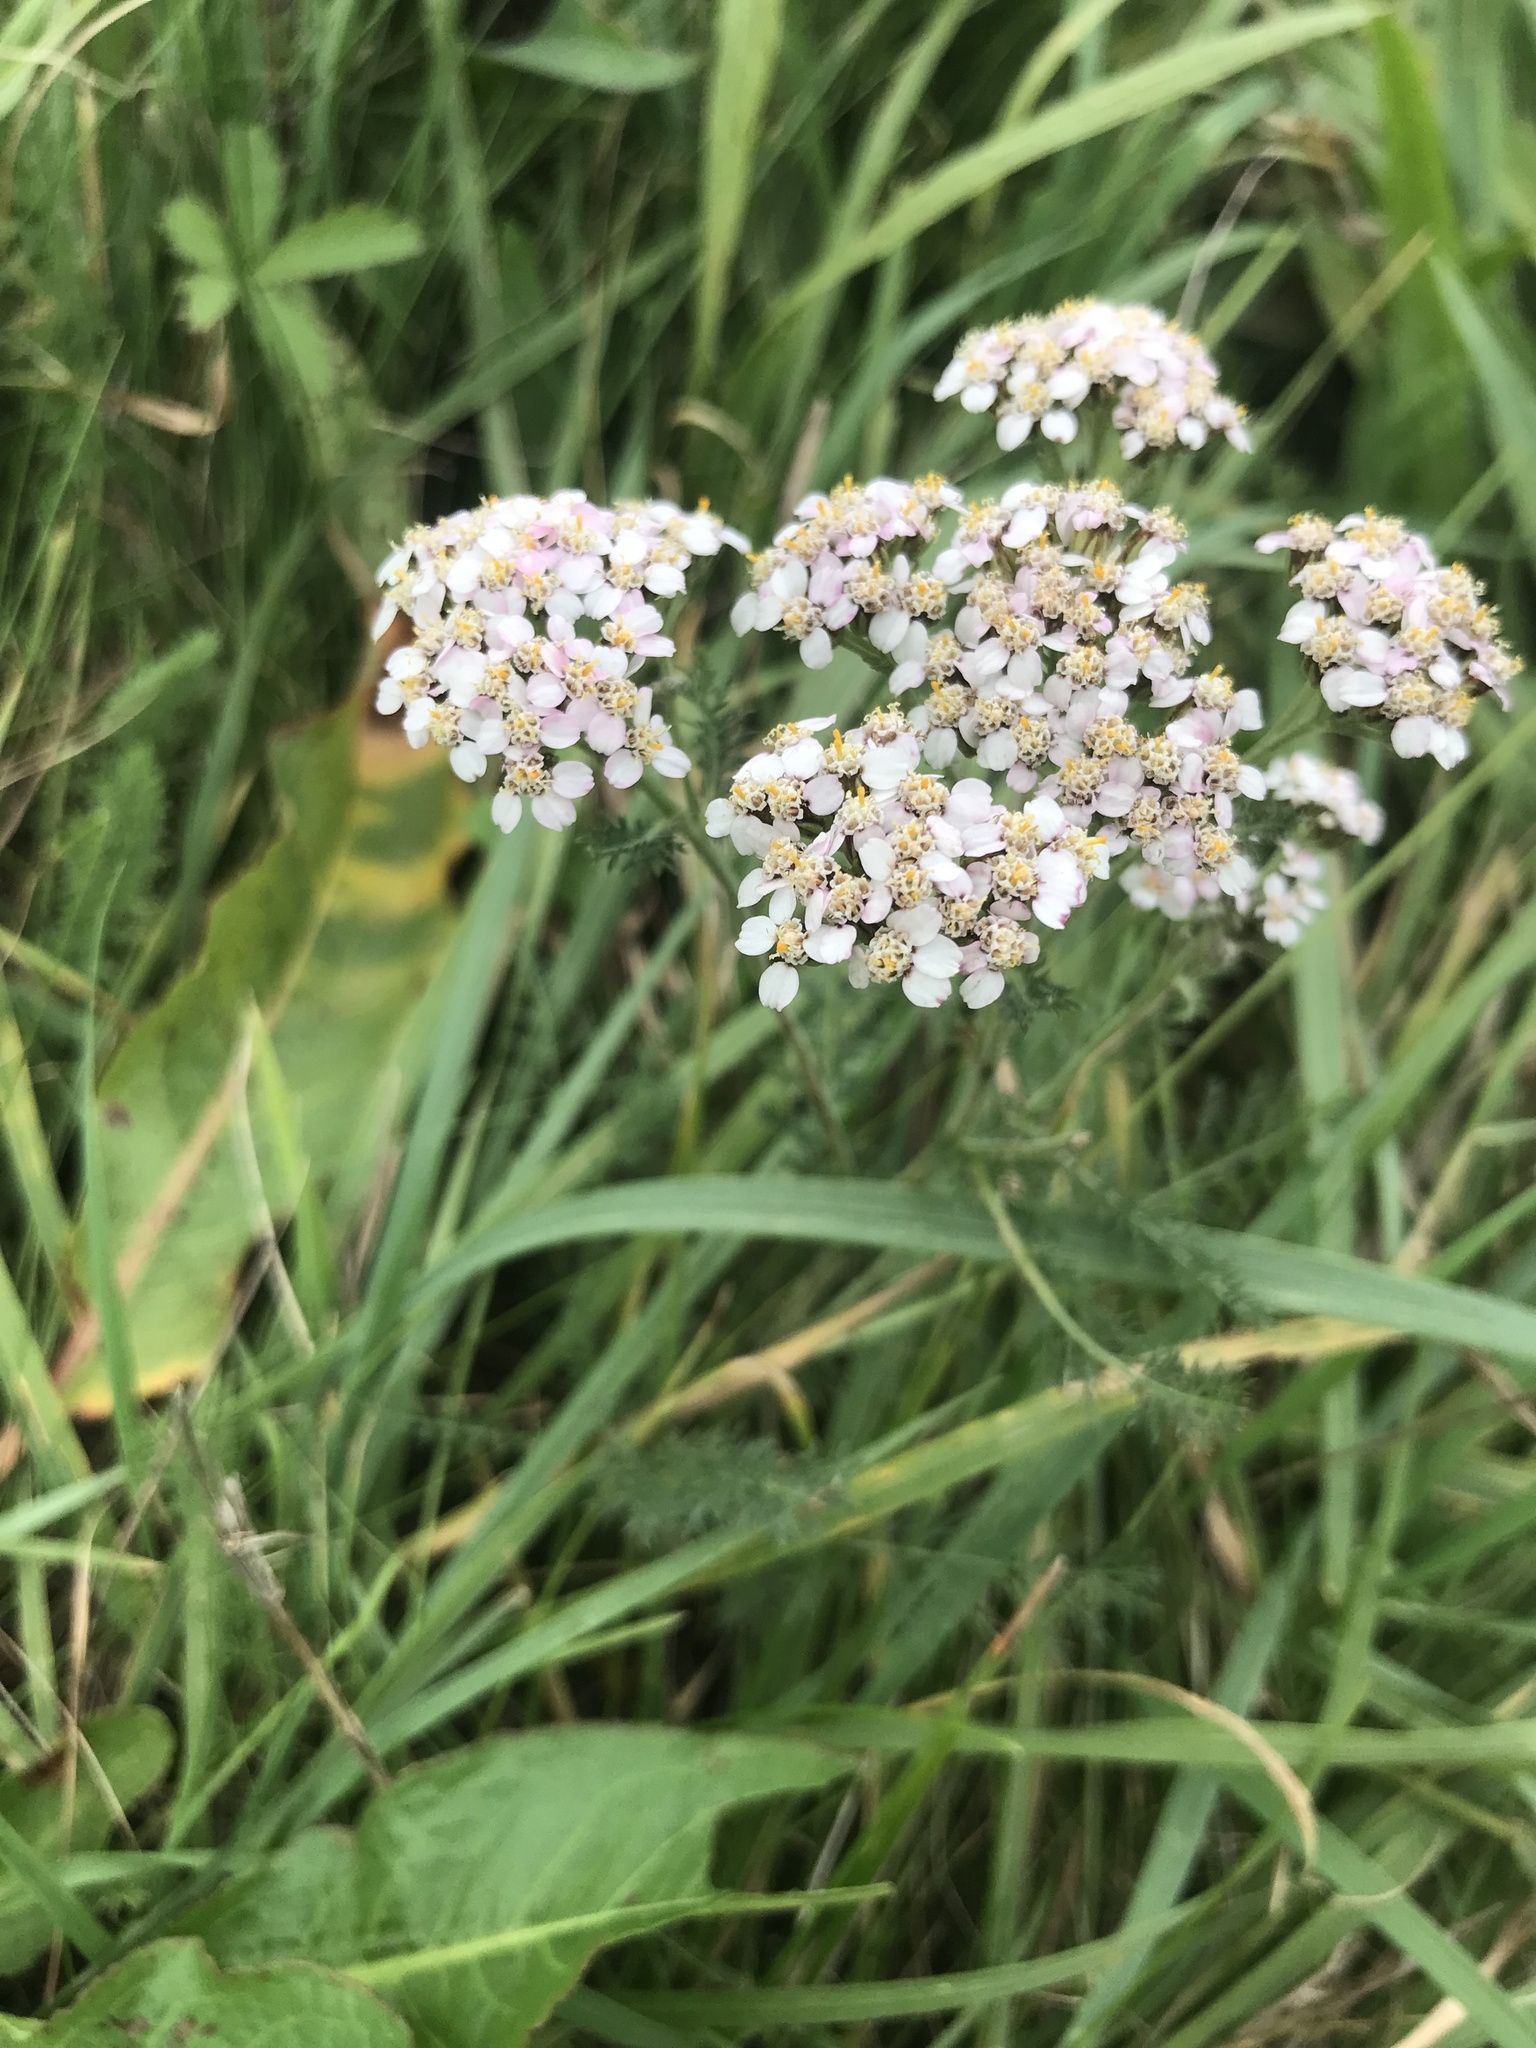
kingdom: Plantae
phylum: Tracheophyta
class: Magnoliopsida
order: Asterales
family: Asteraceae
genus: Achillea
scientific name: Achillea millefolium
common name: Yarrow
